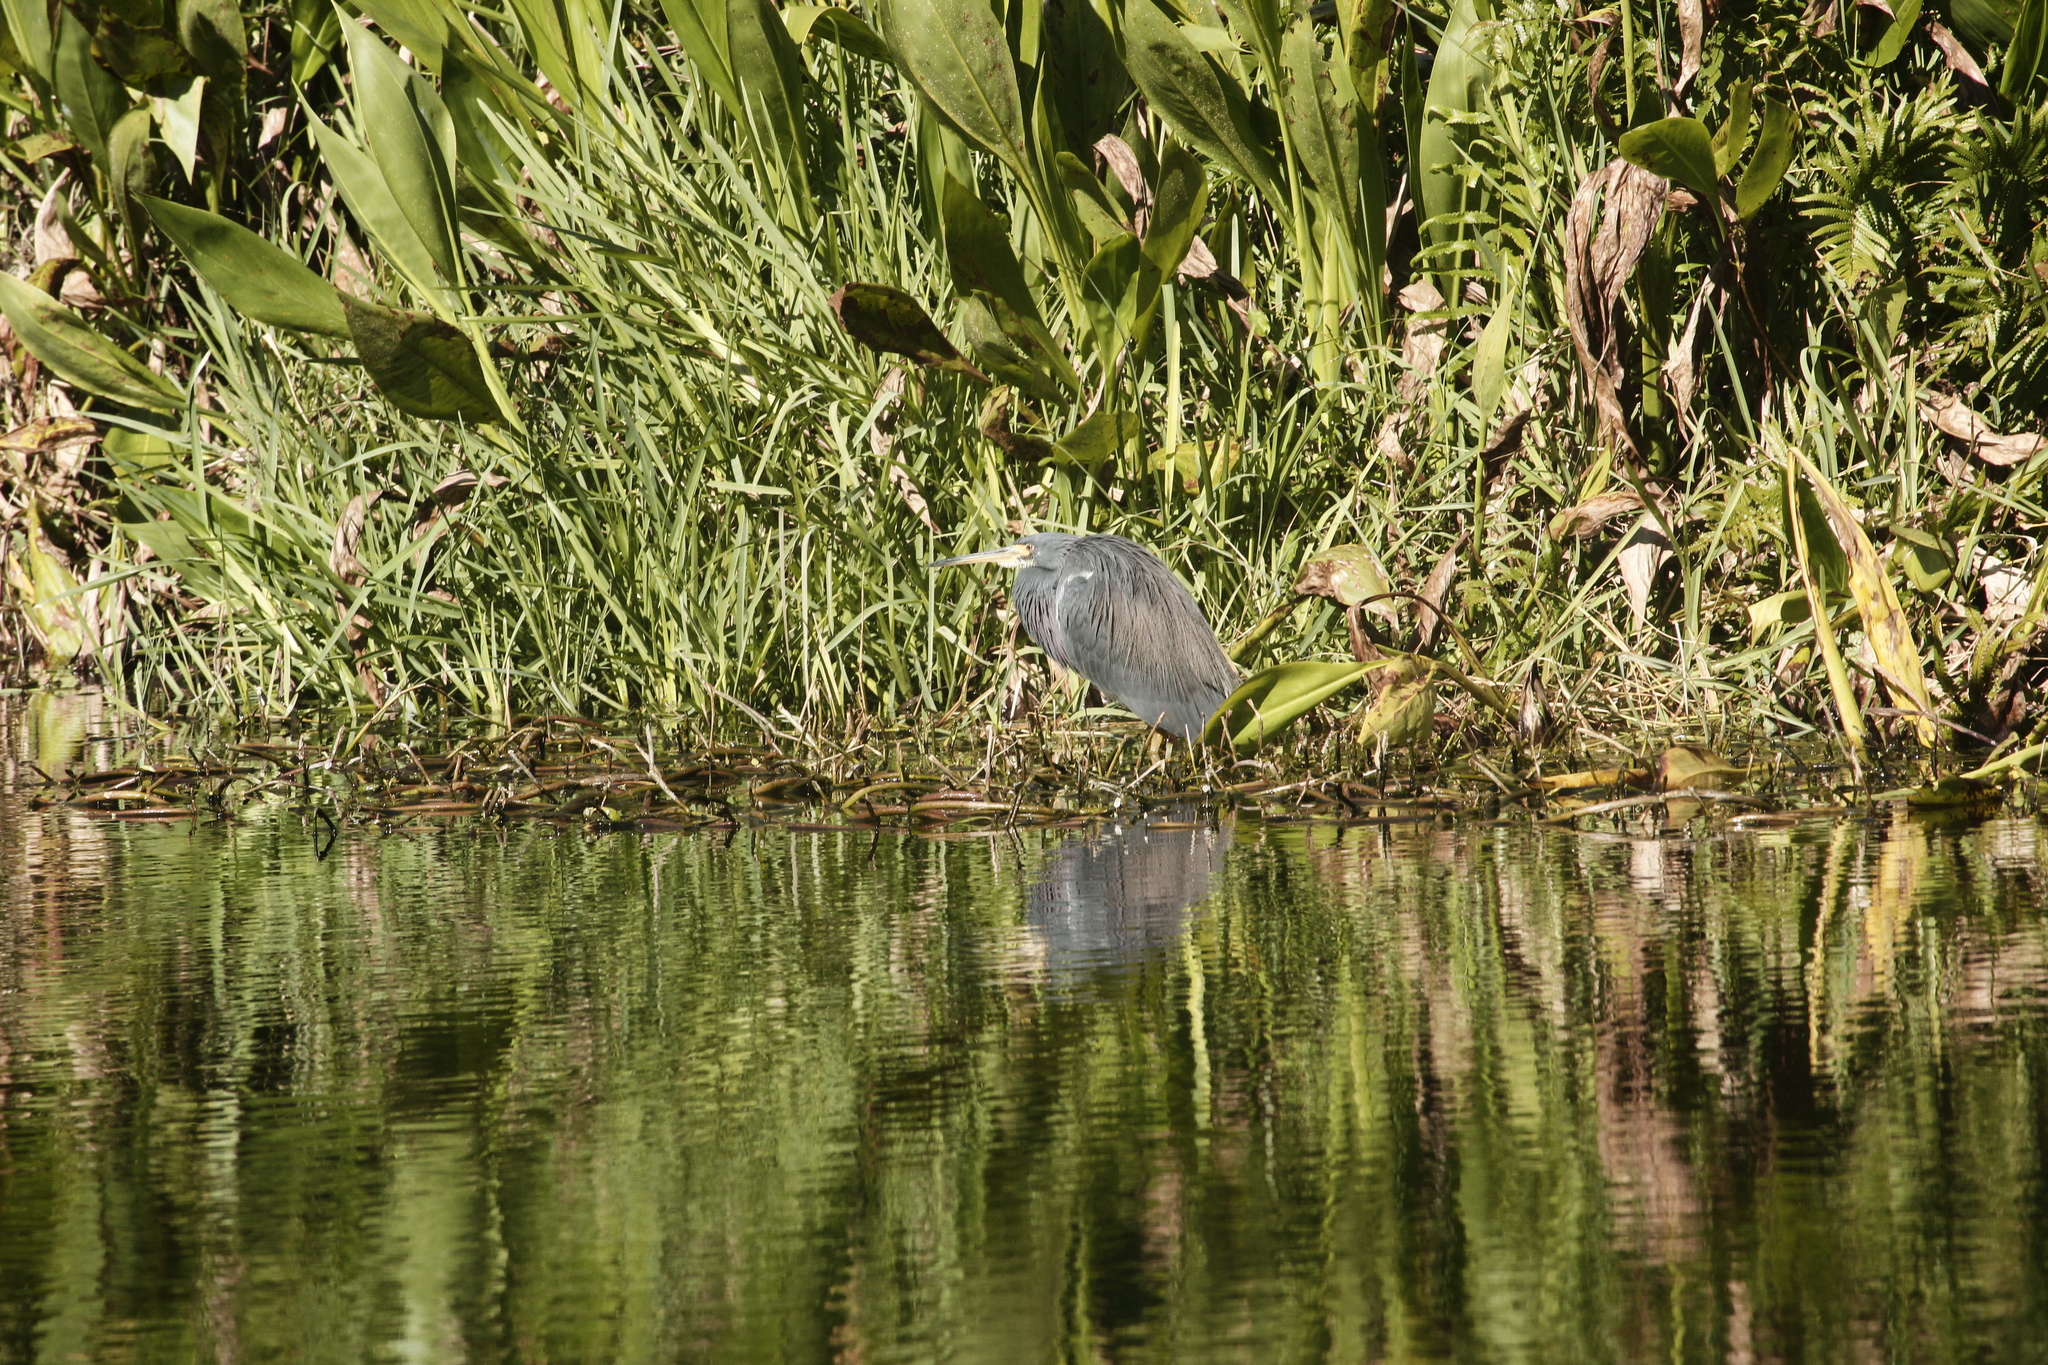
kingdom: Animalia
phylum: Chordata
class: Aves
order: Pelecaniformes
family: Ardeidae
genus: Egretta
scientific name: Egretta tricolor
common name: Tricolored heron
